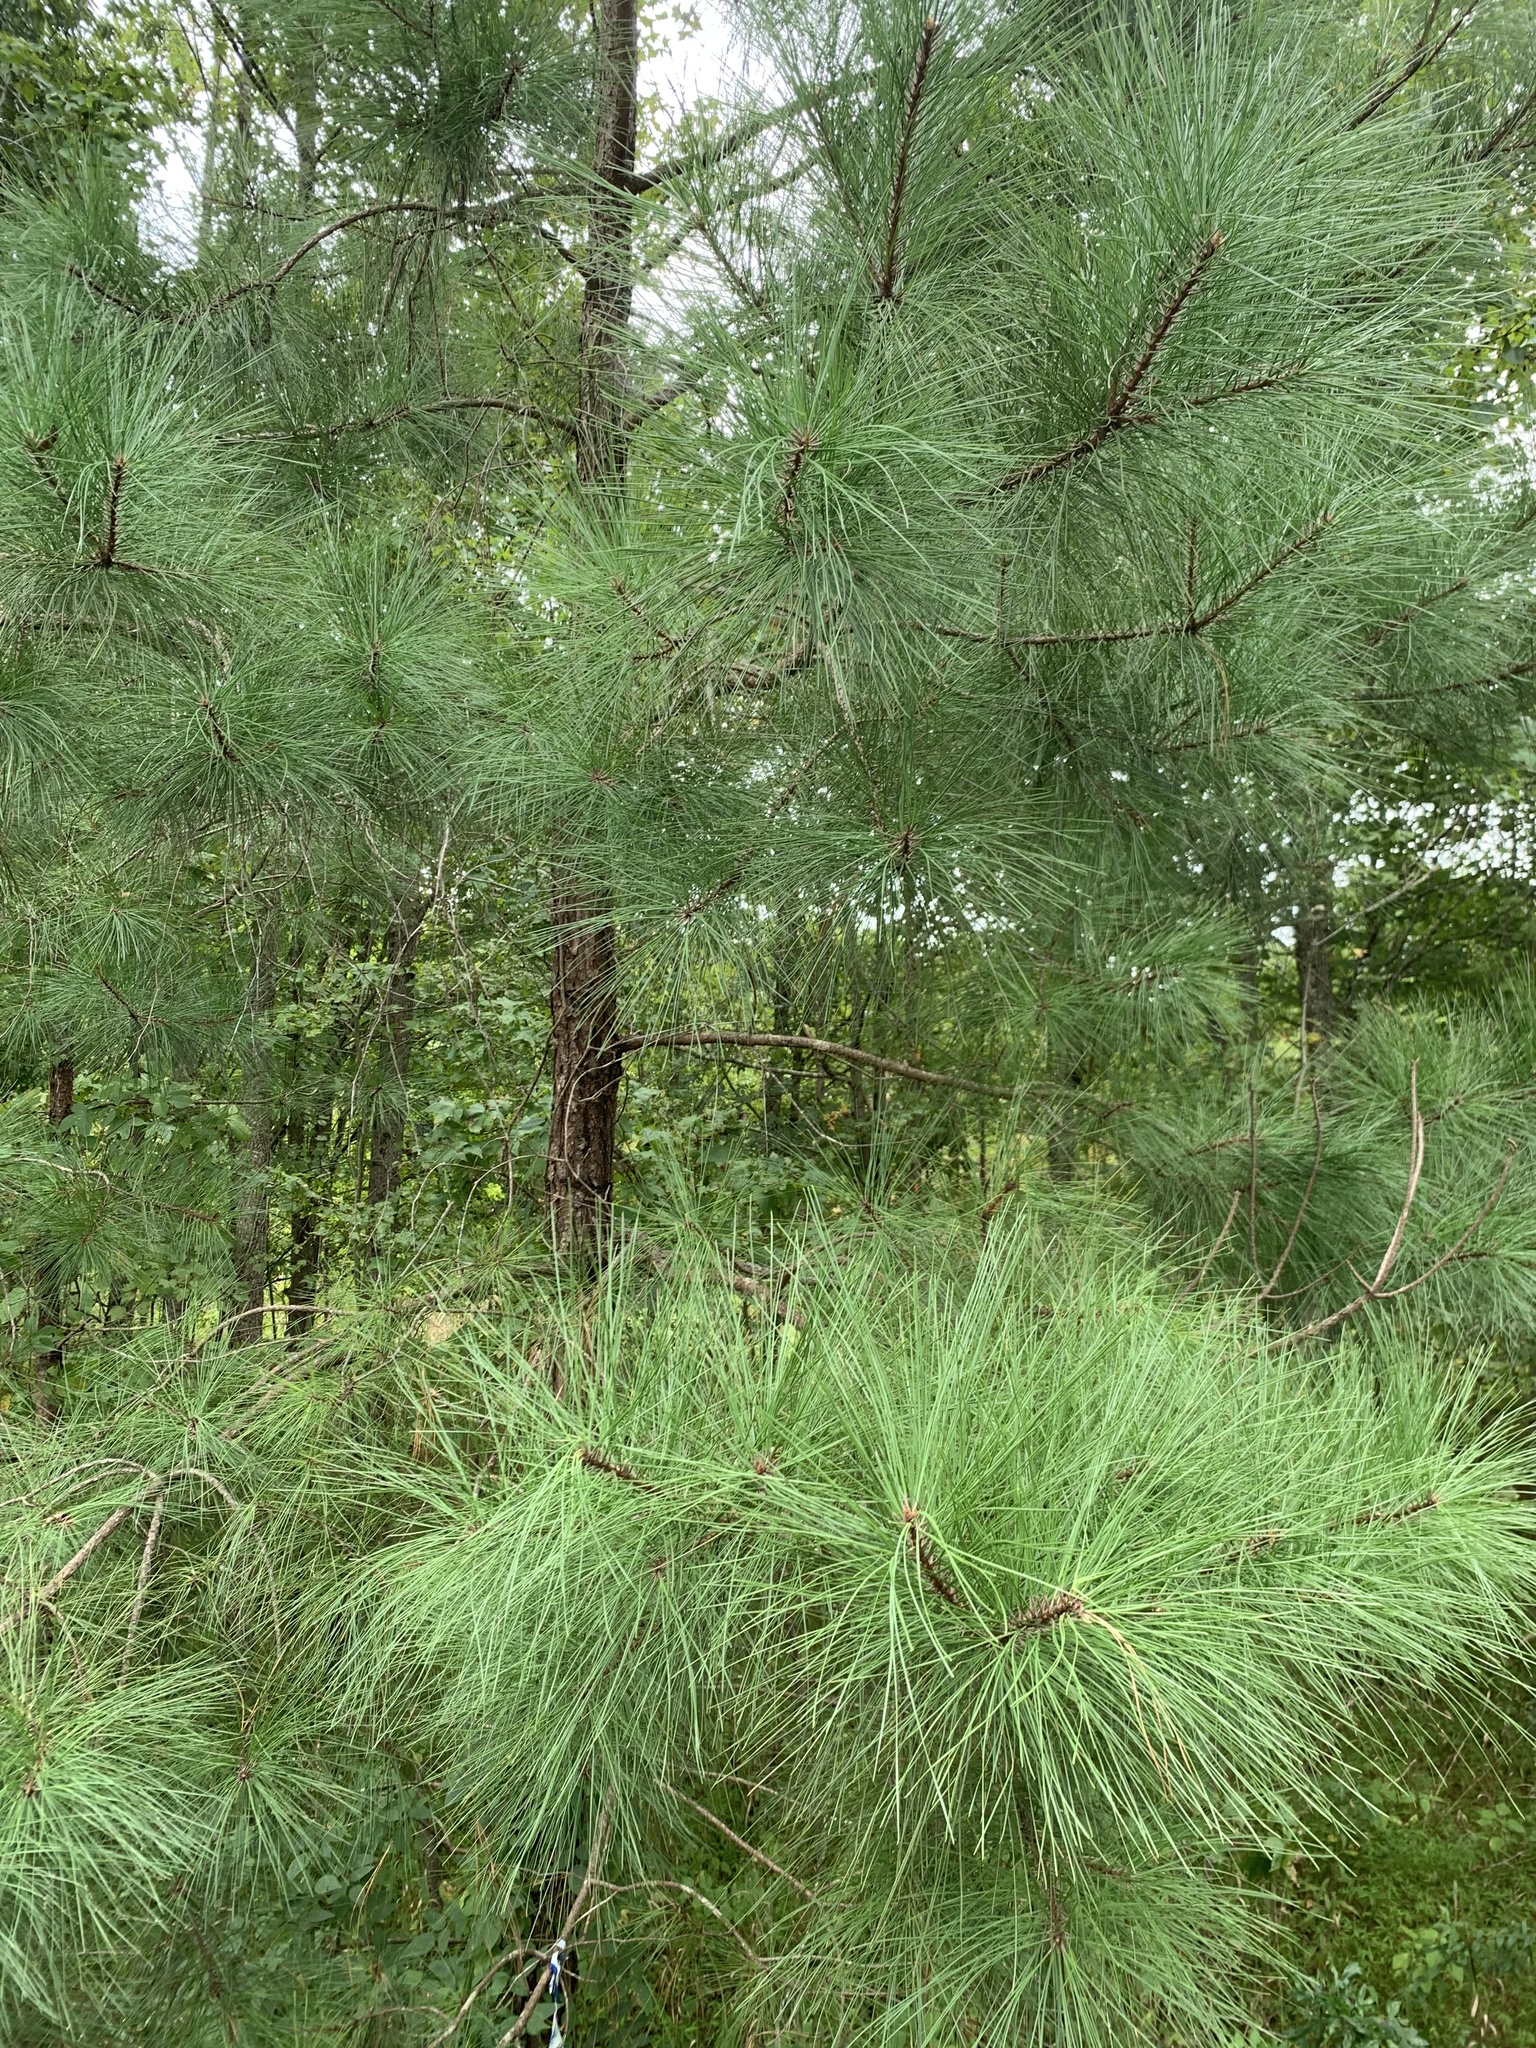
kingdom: Plantae
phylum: Tracheophyta
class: Pinopsida
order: Pinales
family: Pinaceae
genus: Pinus
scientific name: Pinus taeda
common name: Loblolly pine
